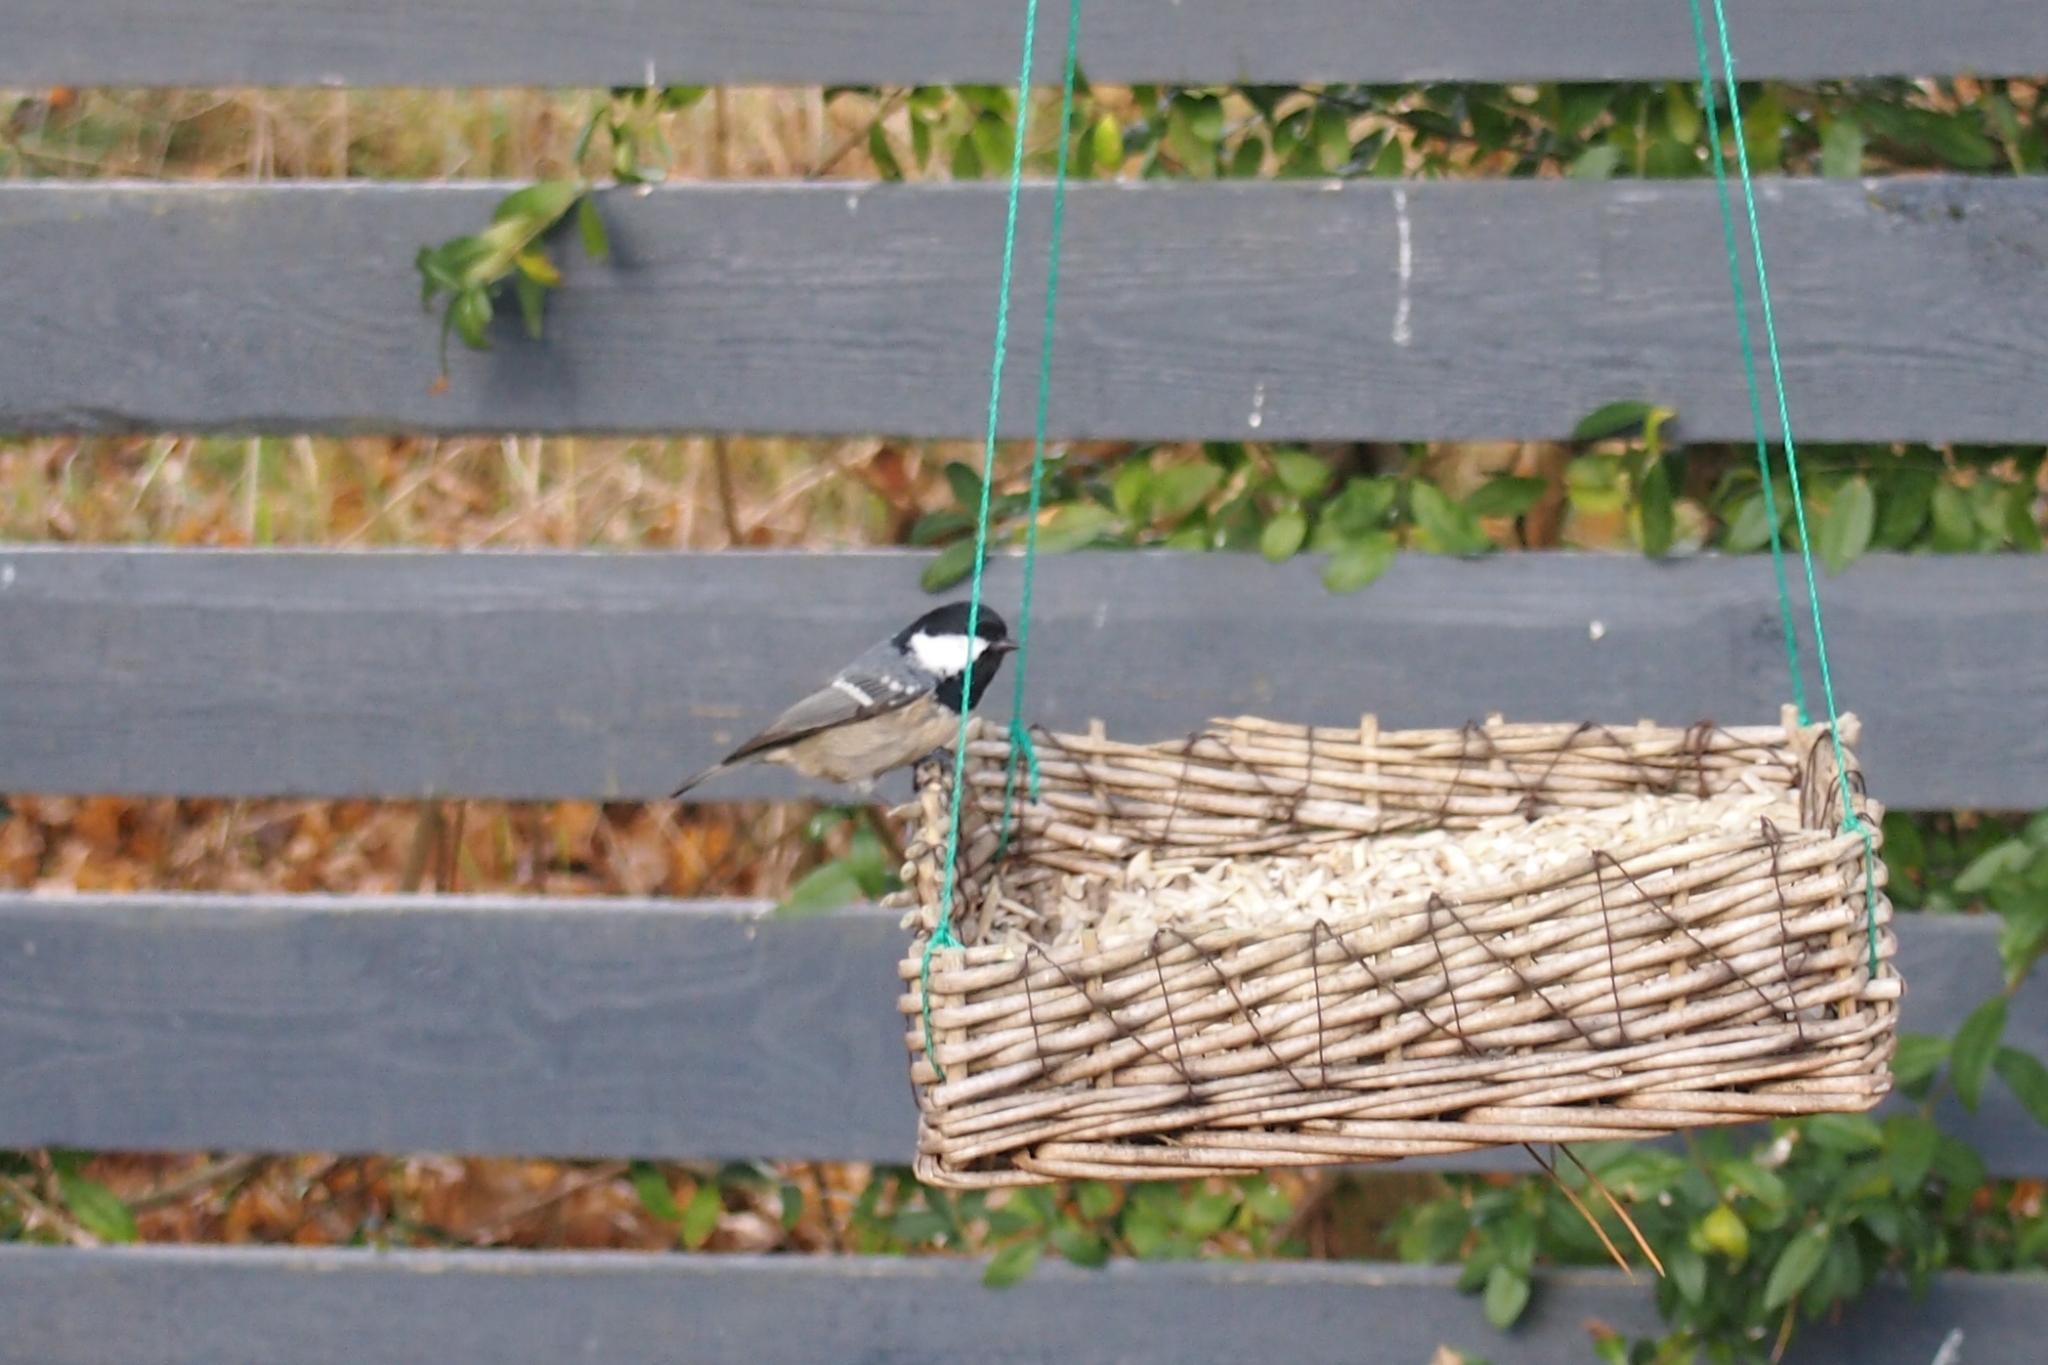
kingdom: Animalia
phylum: Chordata
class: Aves
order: Passeriformes
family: Paridae
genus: Periparus
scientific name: Periparus ater
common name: Coal tit
